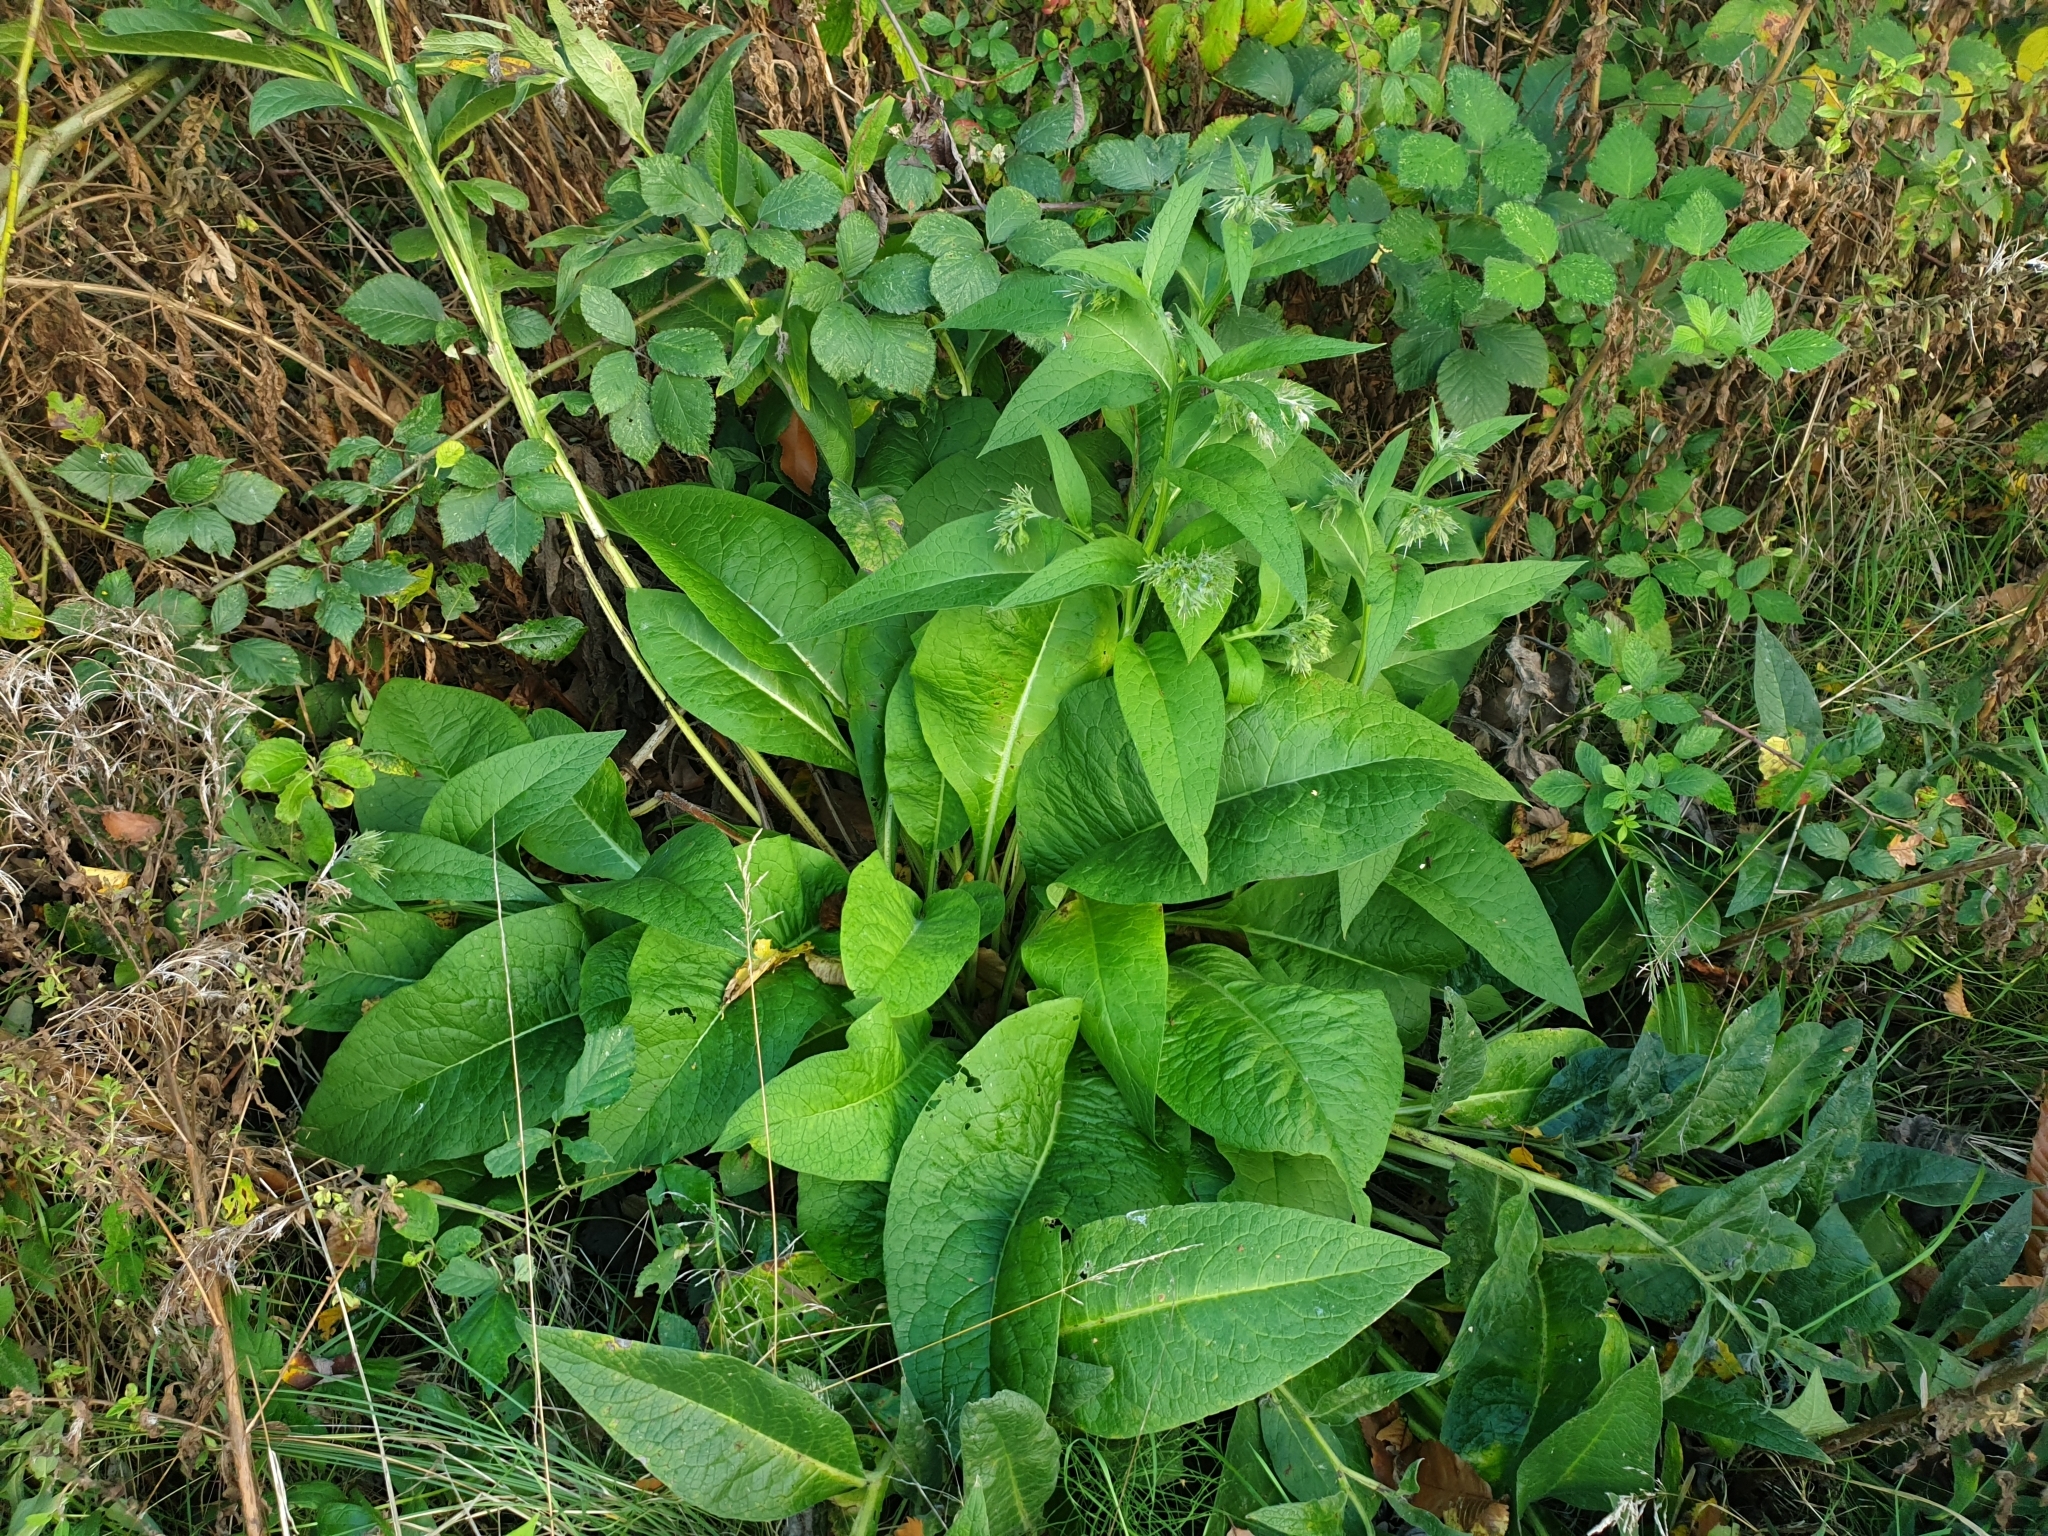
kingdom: Plantae
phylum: Tracheophyta
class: Magnoliopsida
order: Boraginales
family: Boraginaceae
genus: Symphytum
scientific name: Symphytum officinale
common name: Common comfrey
